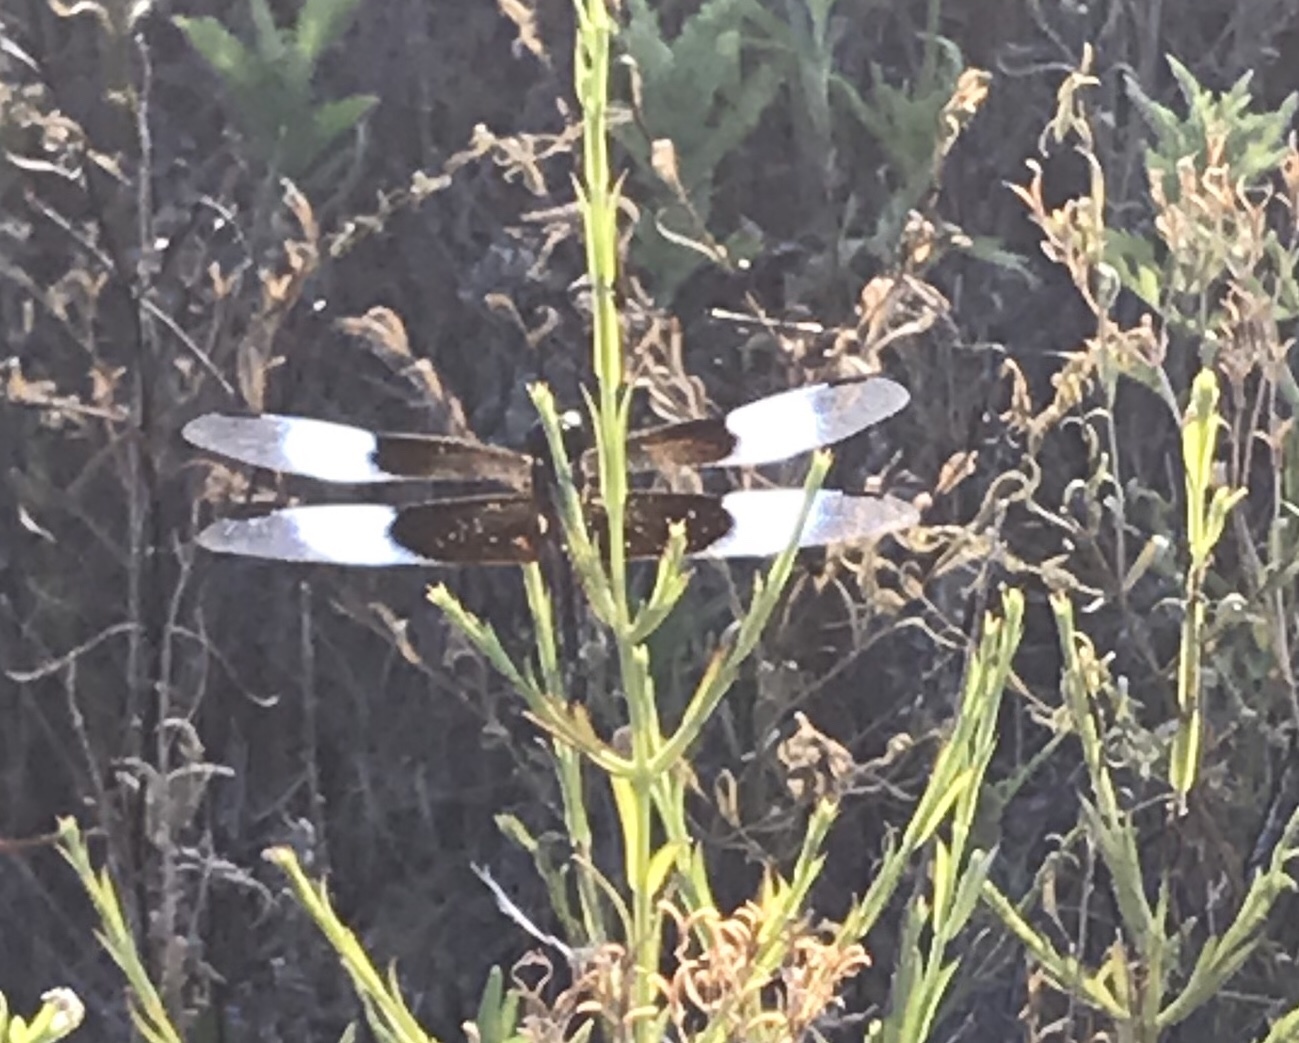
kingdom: Animalia
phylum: Arthropoda
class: Insecta
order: Odonata
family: Libellulidae
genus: Libellula
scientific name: Libellula luctuosa
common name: Widow skimmer
